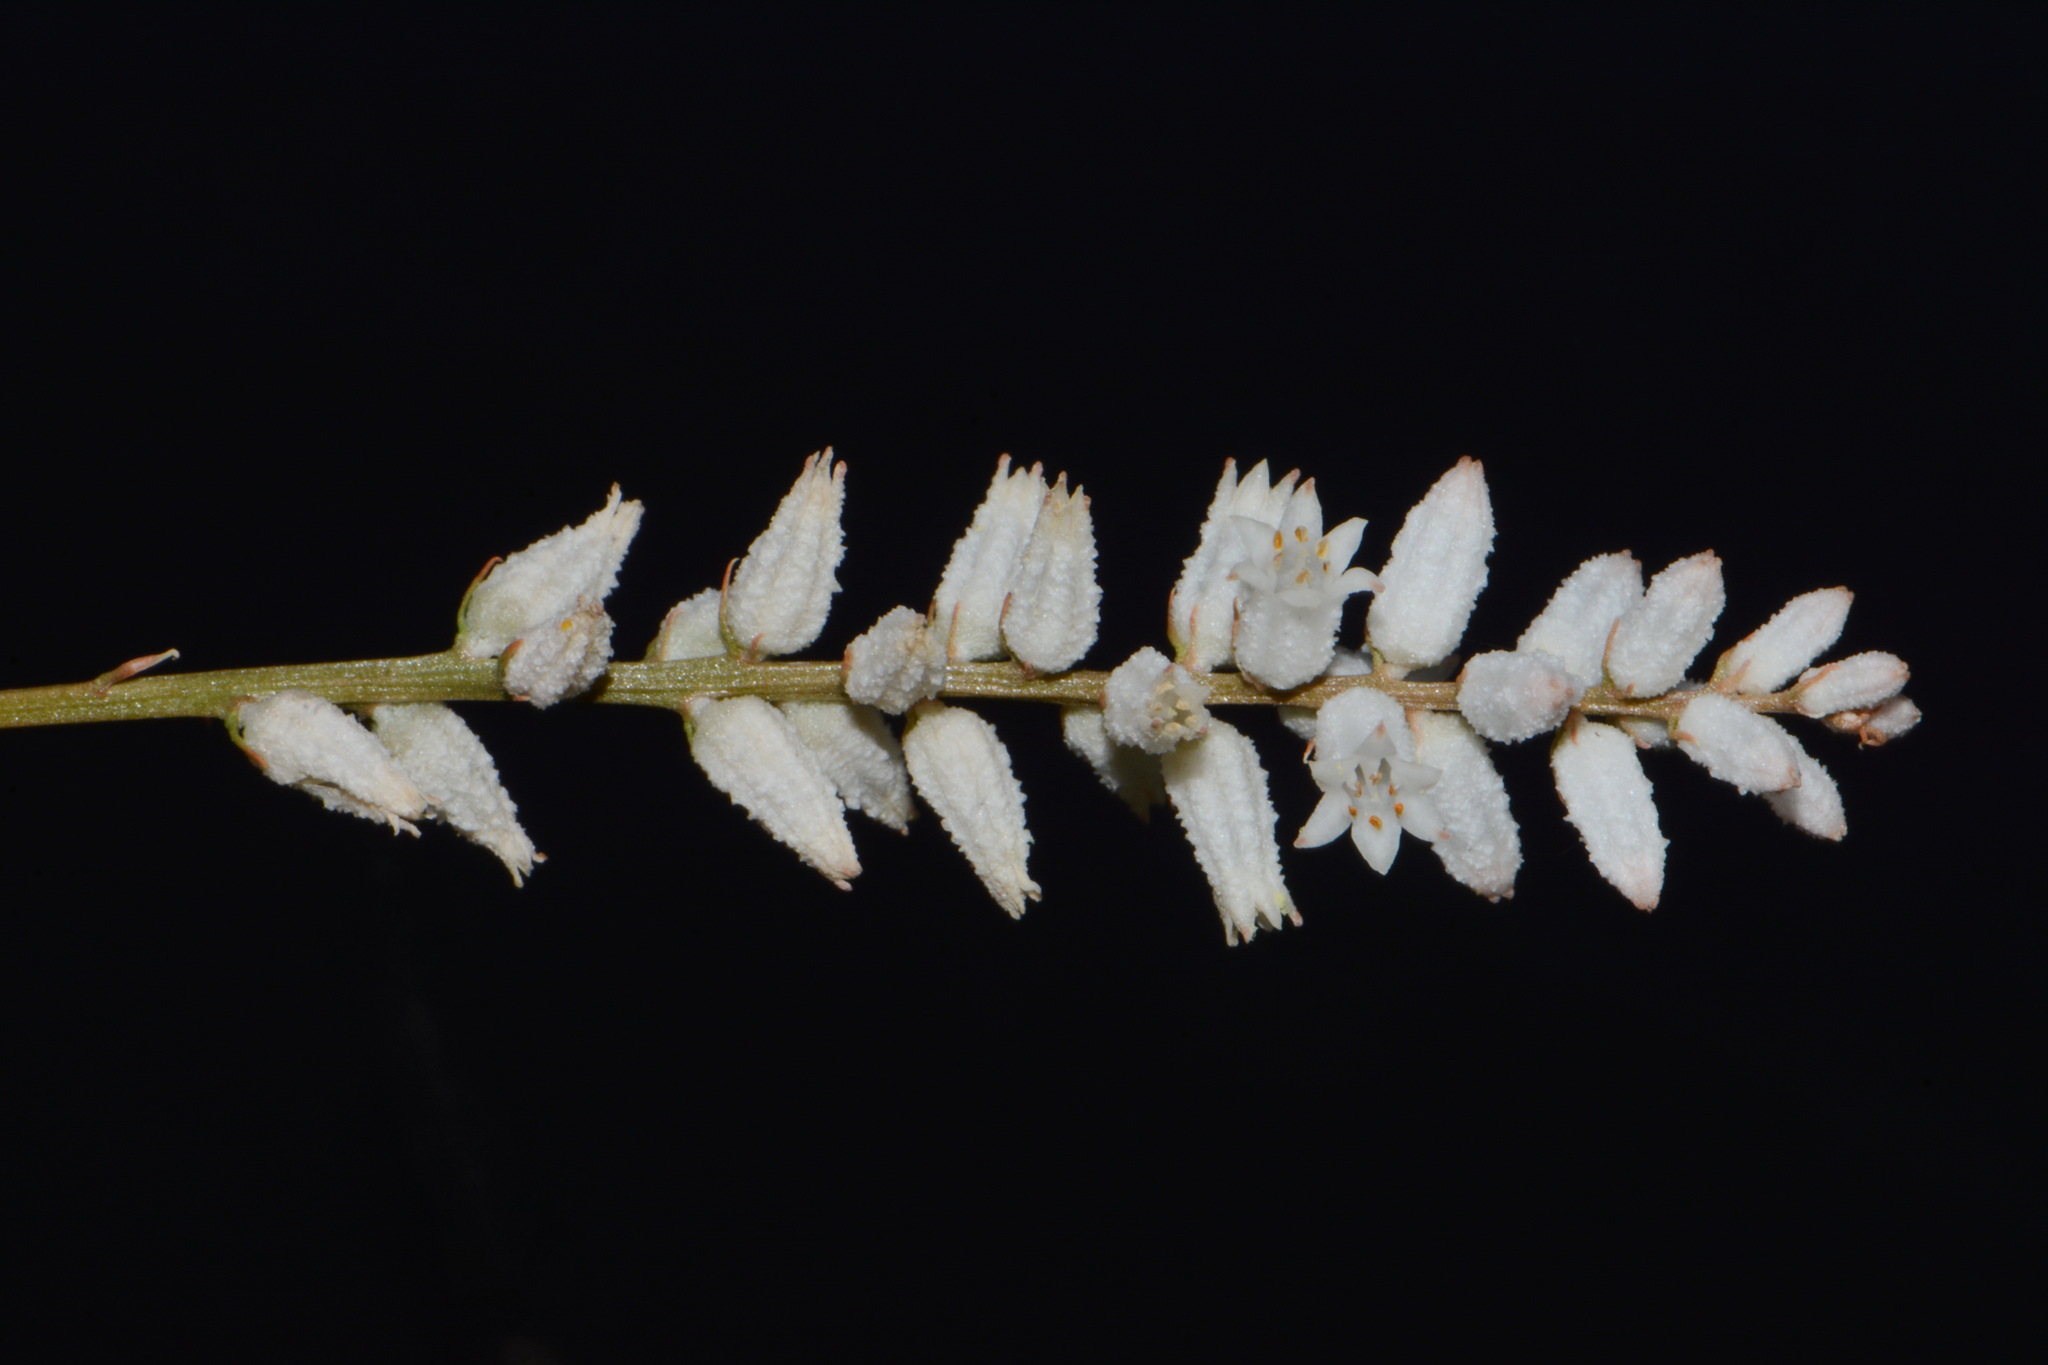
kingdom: Plantae
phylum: Tracheophyta
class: Liliopsida
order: Dioscoreales
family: Nartheciaceae
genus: Aletris
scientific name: Aletris farinosa
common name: Colicroot
